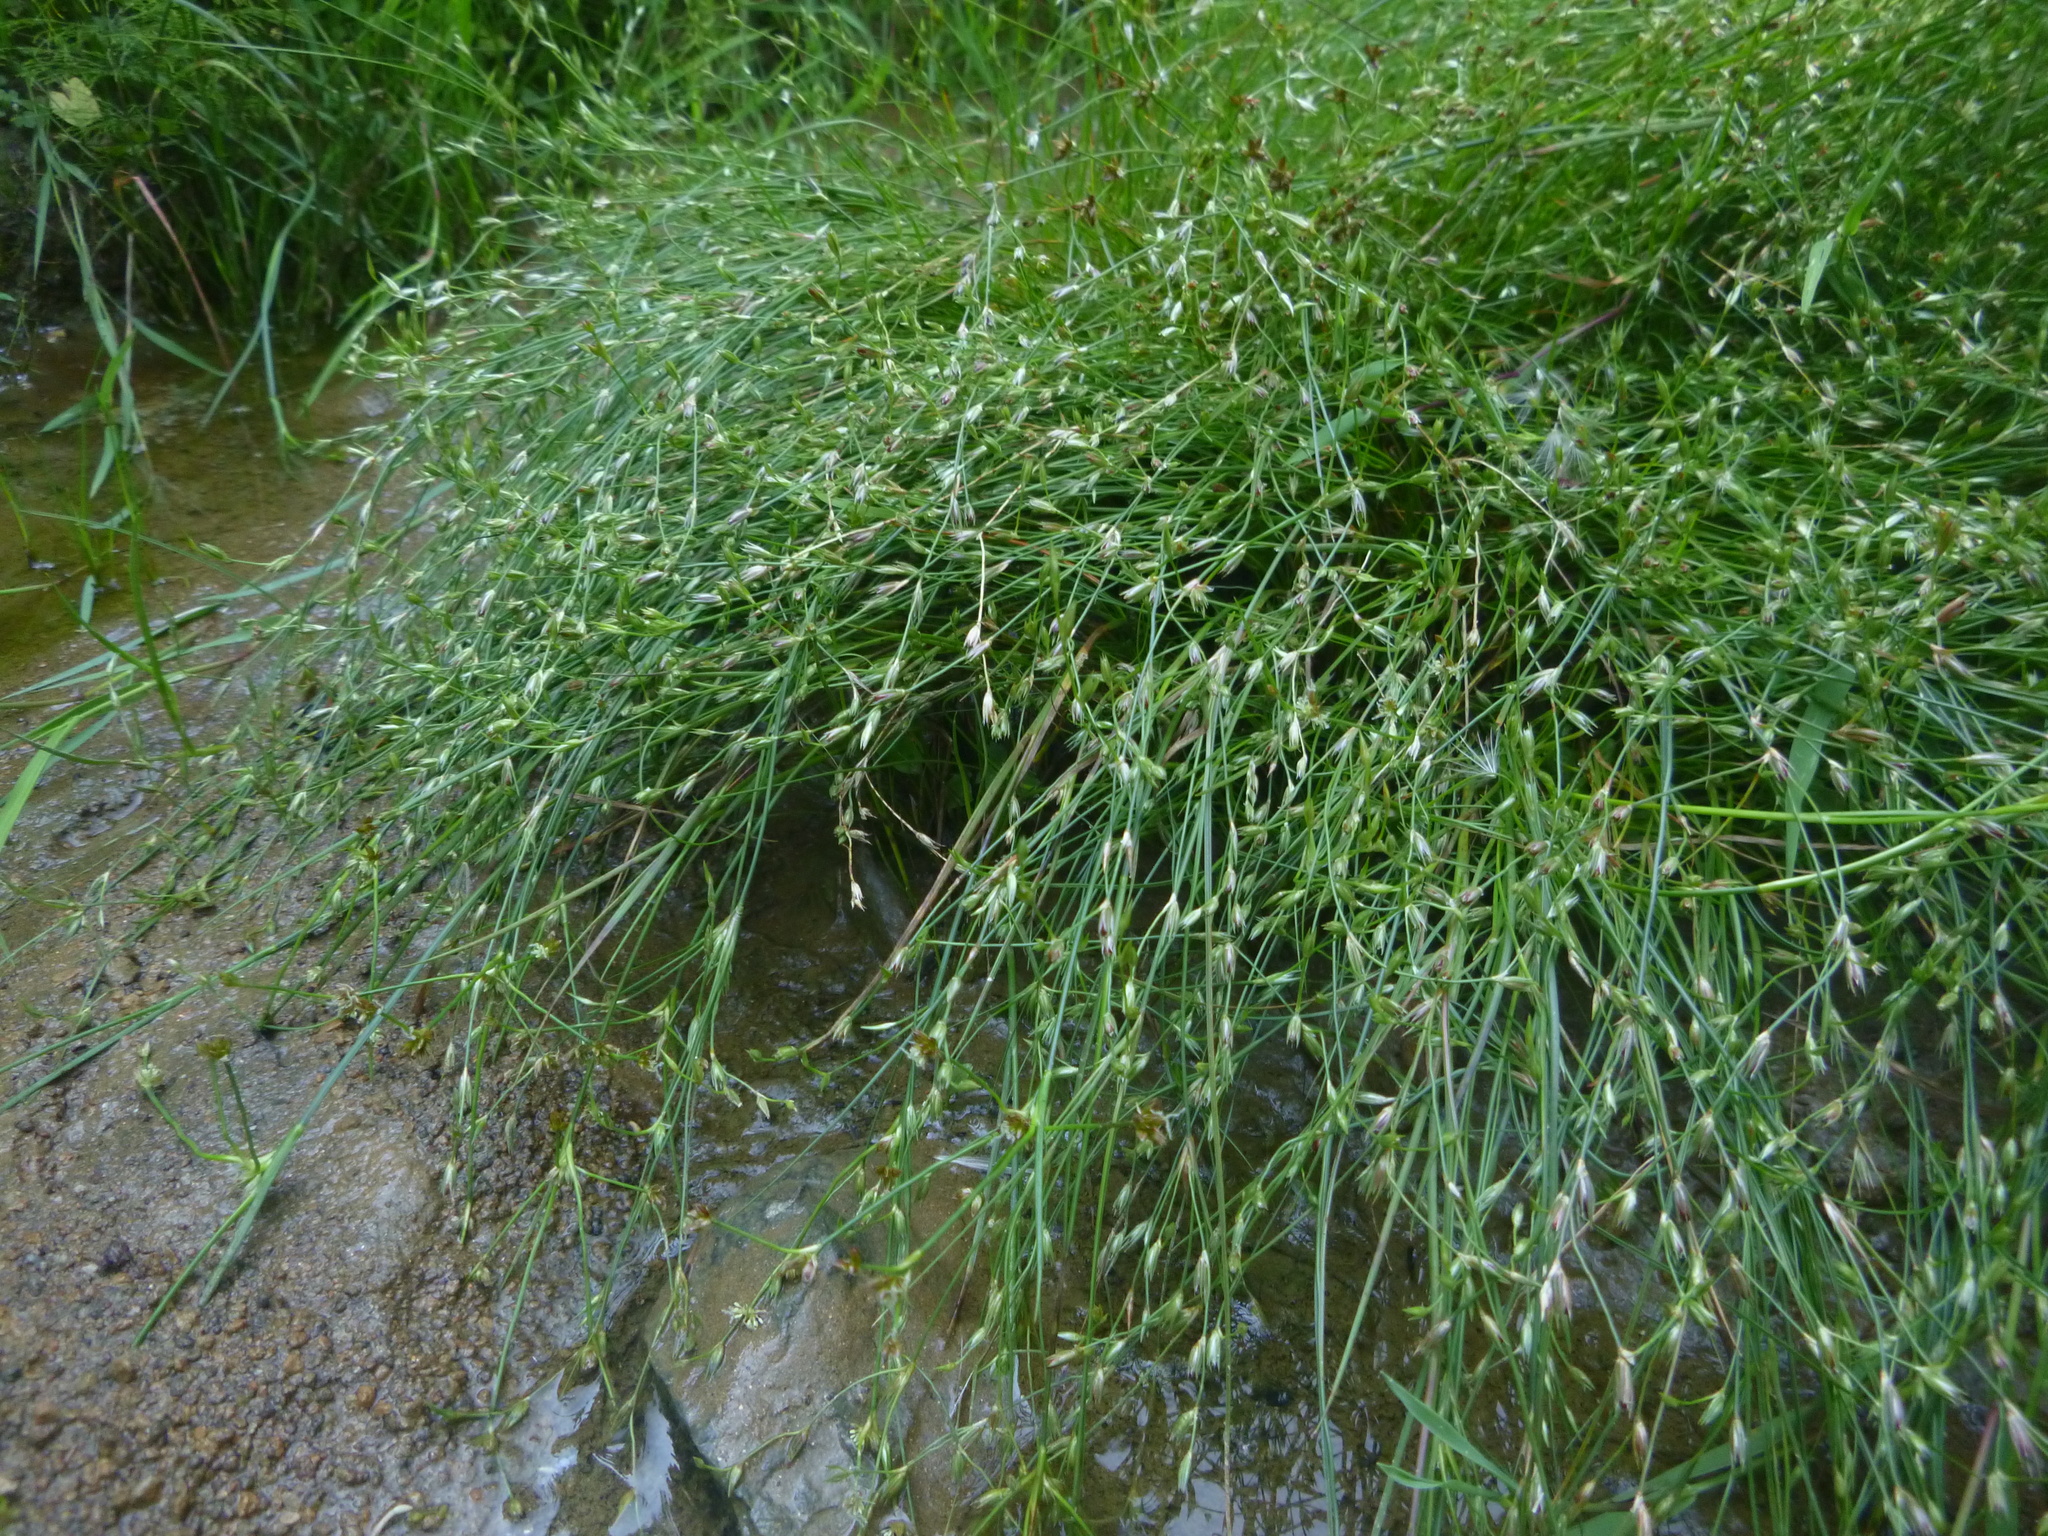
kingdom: Plantae
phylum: Tracheophyta
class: Liliopsida
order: Poales
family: Juncaceae
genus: Juncus
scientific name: Juncus bufonius
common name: Toad rush
